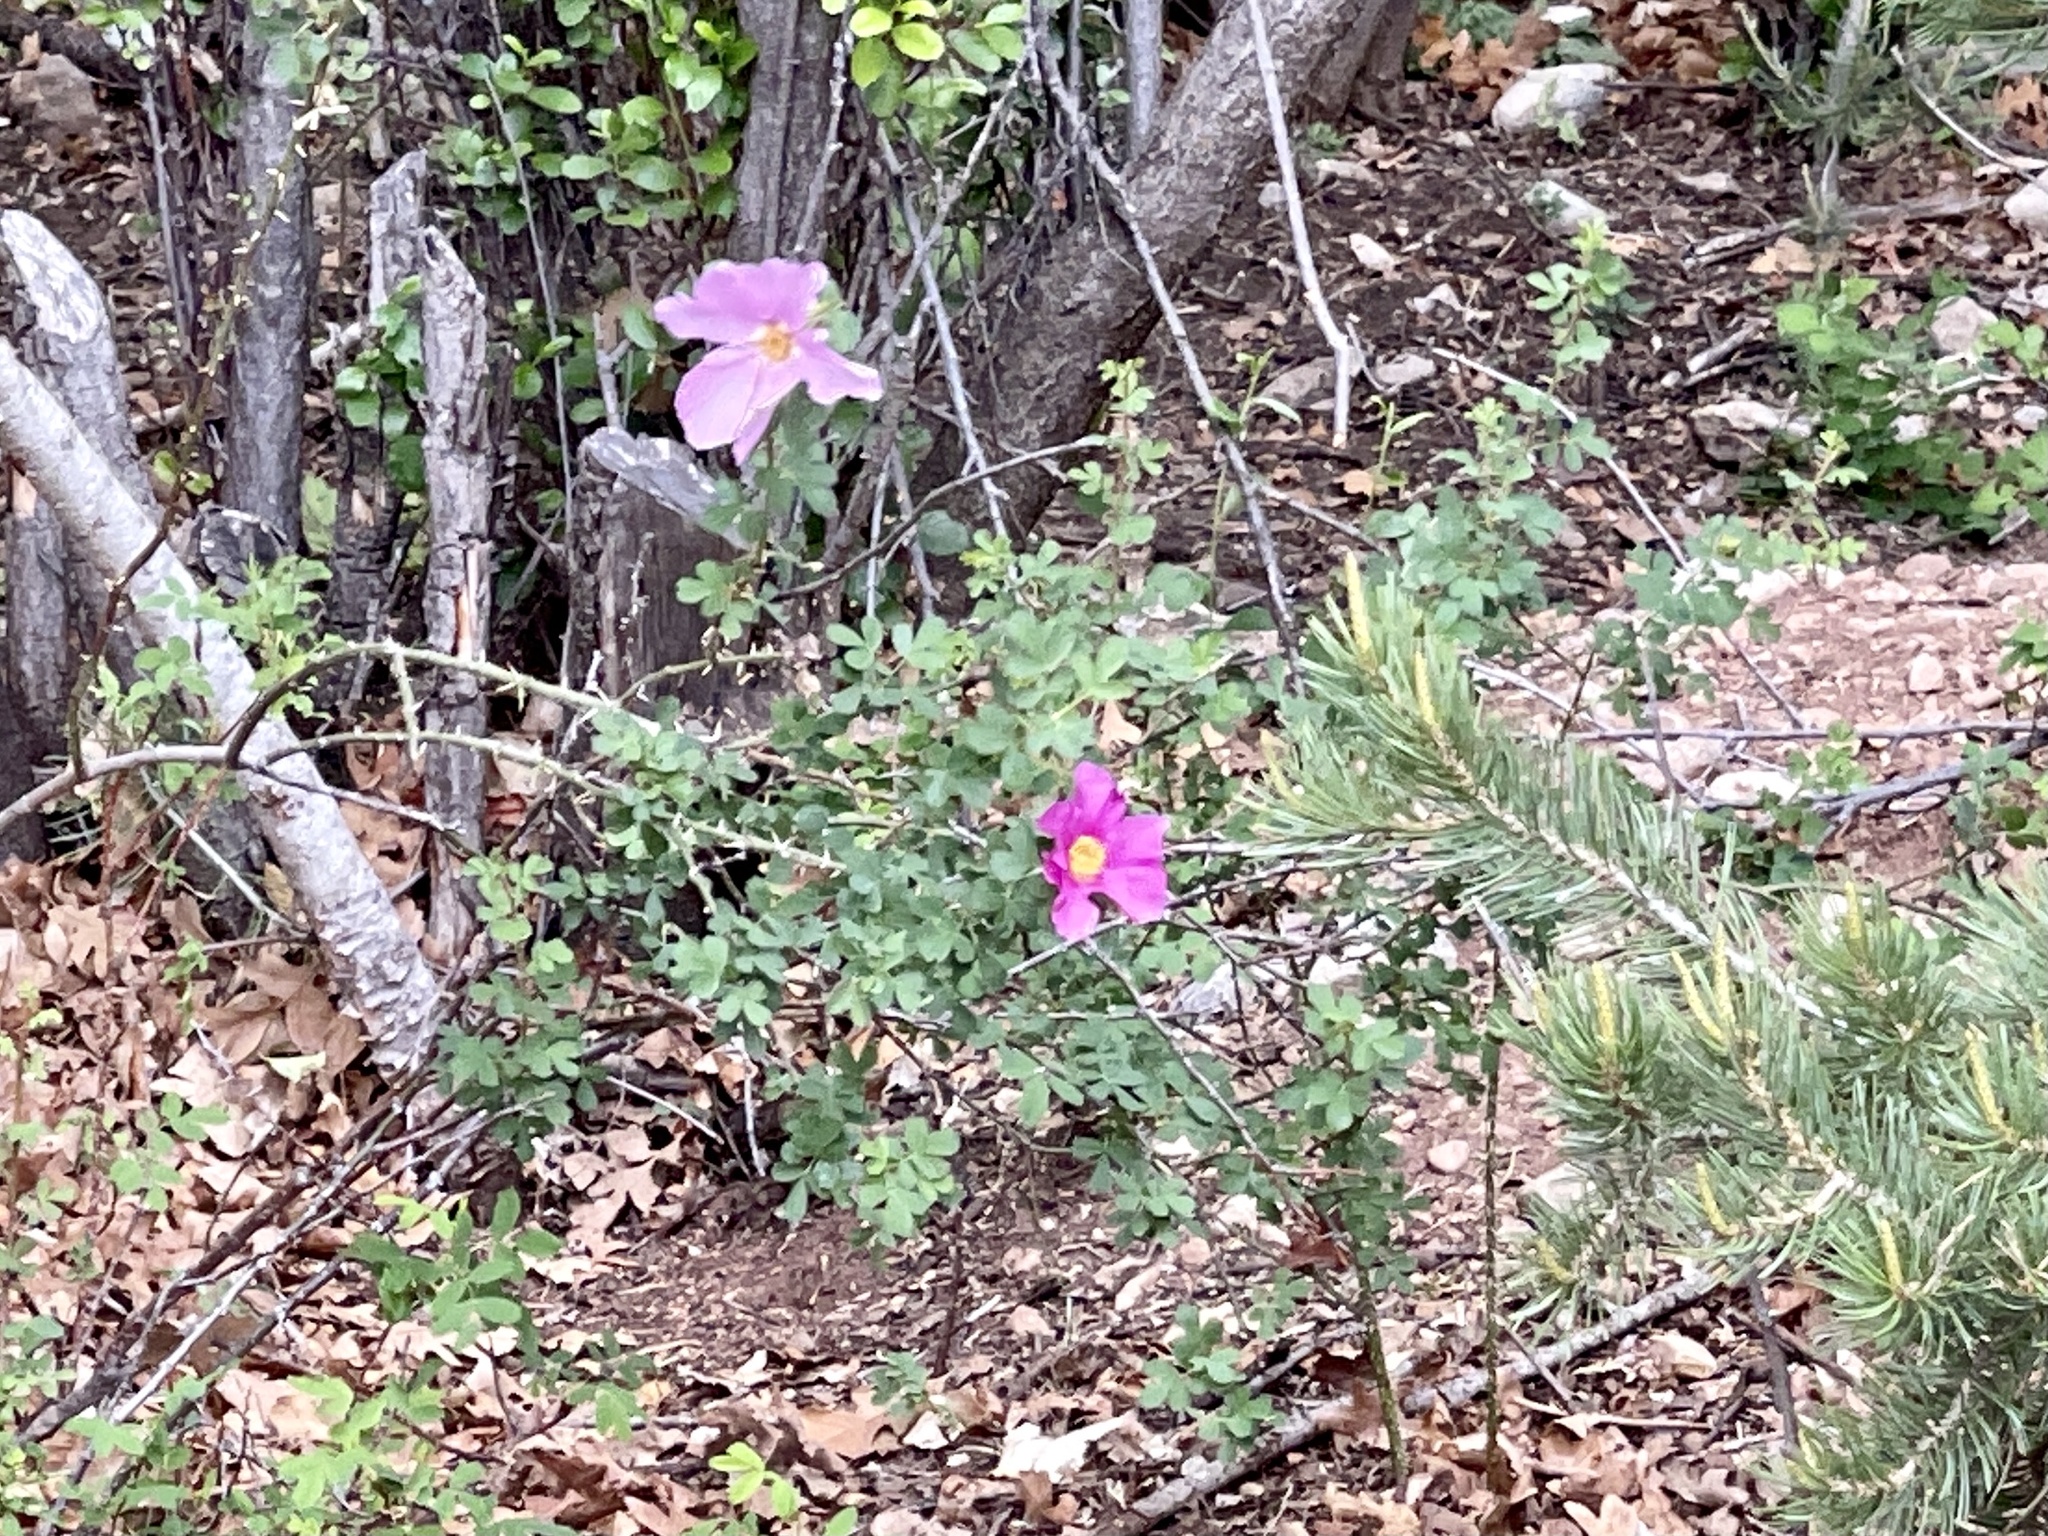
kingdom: Plantae
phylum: Tracheophyta
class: Magnoliopsida
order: Rosales
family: Rosaceae
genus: Rosa
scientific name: Rosa woodsii
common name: Woods's rose
